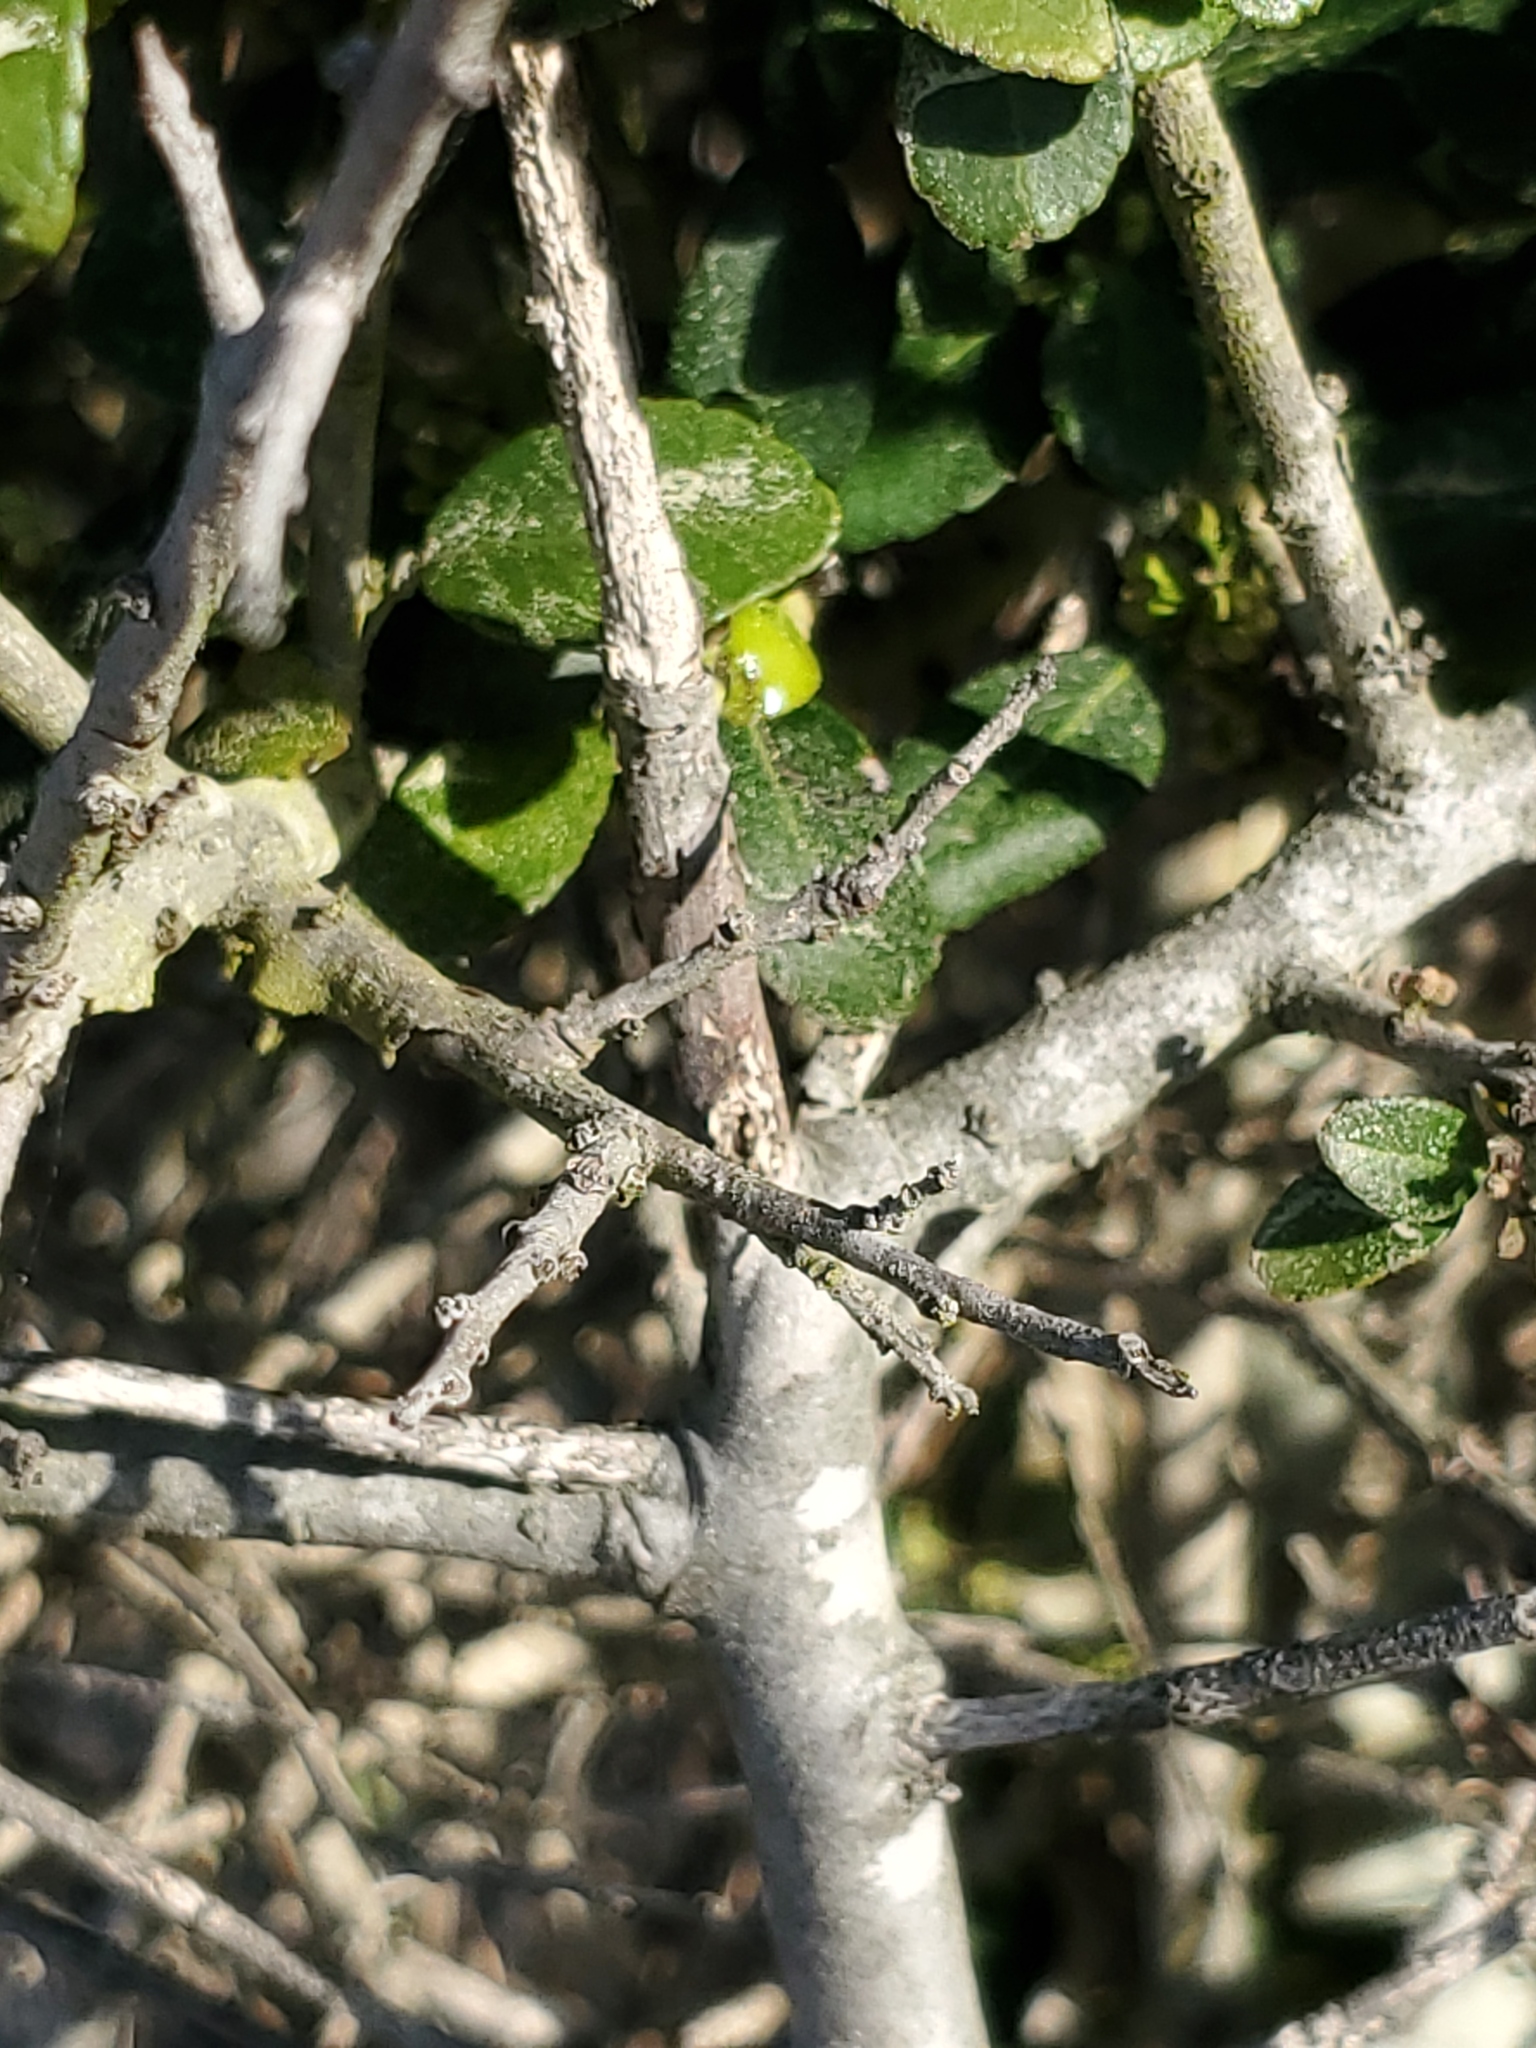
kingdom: Plantae
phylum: Tracheophyta
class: Magnoliopsida
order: Aquifoliales
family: Aquifoliaceae
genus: Ilex
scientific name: Ilex vomitoria
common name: Yaupon holly
